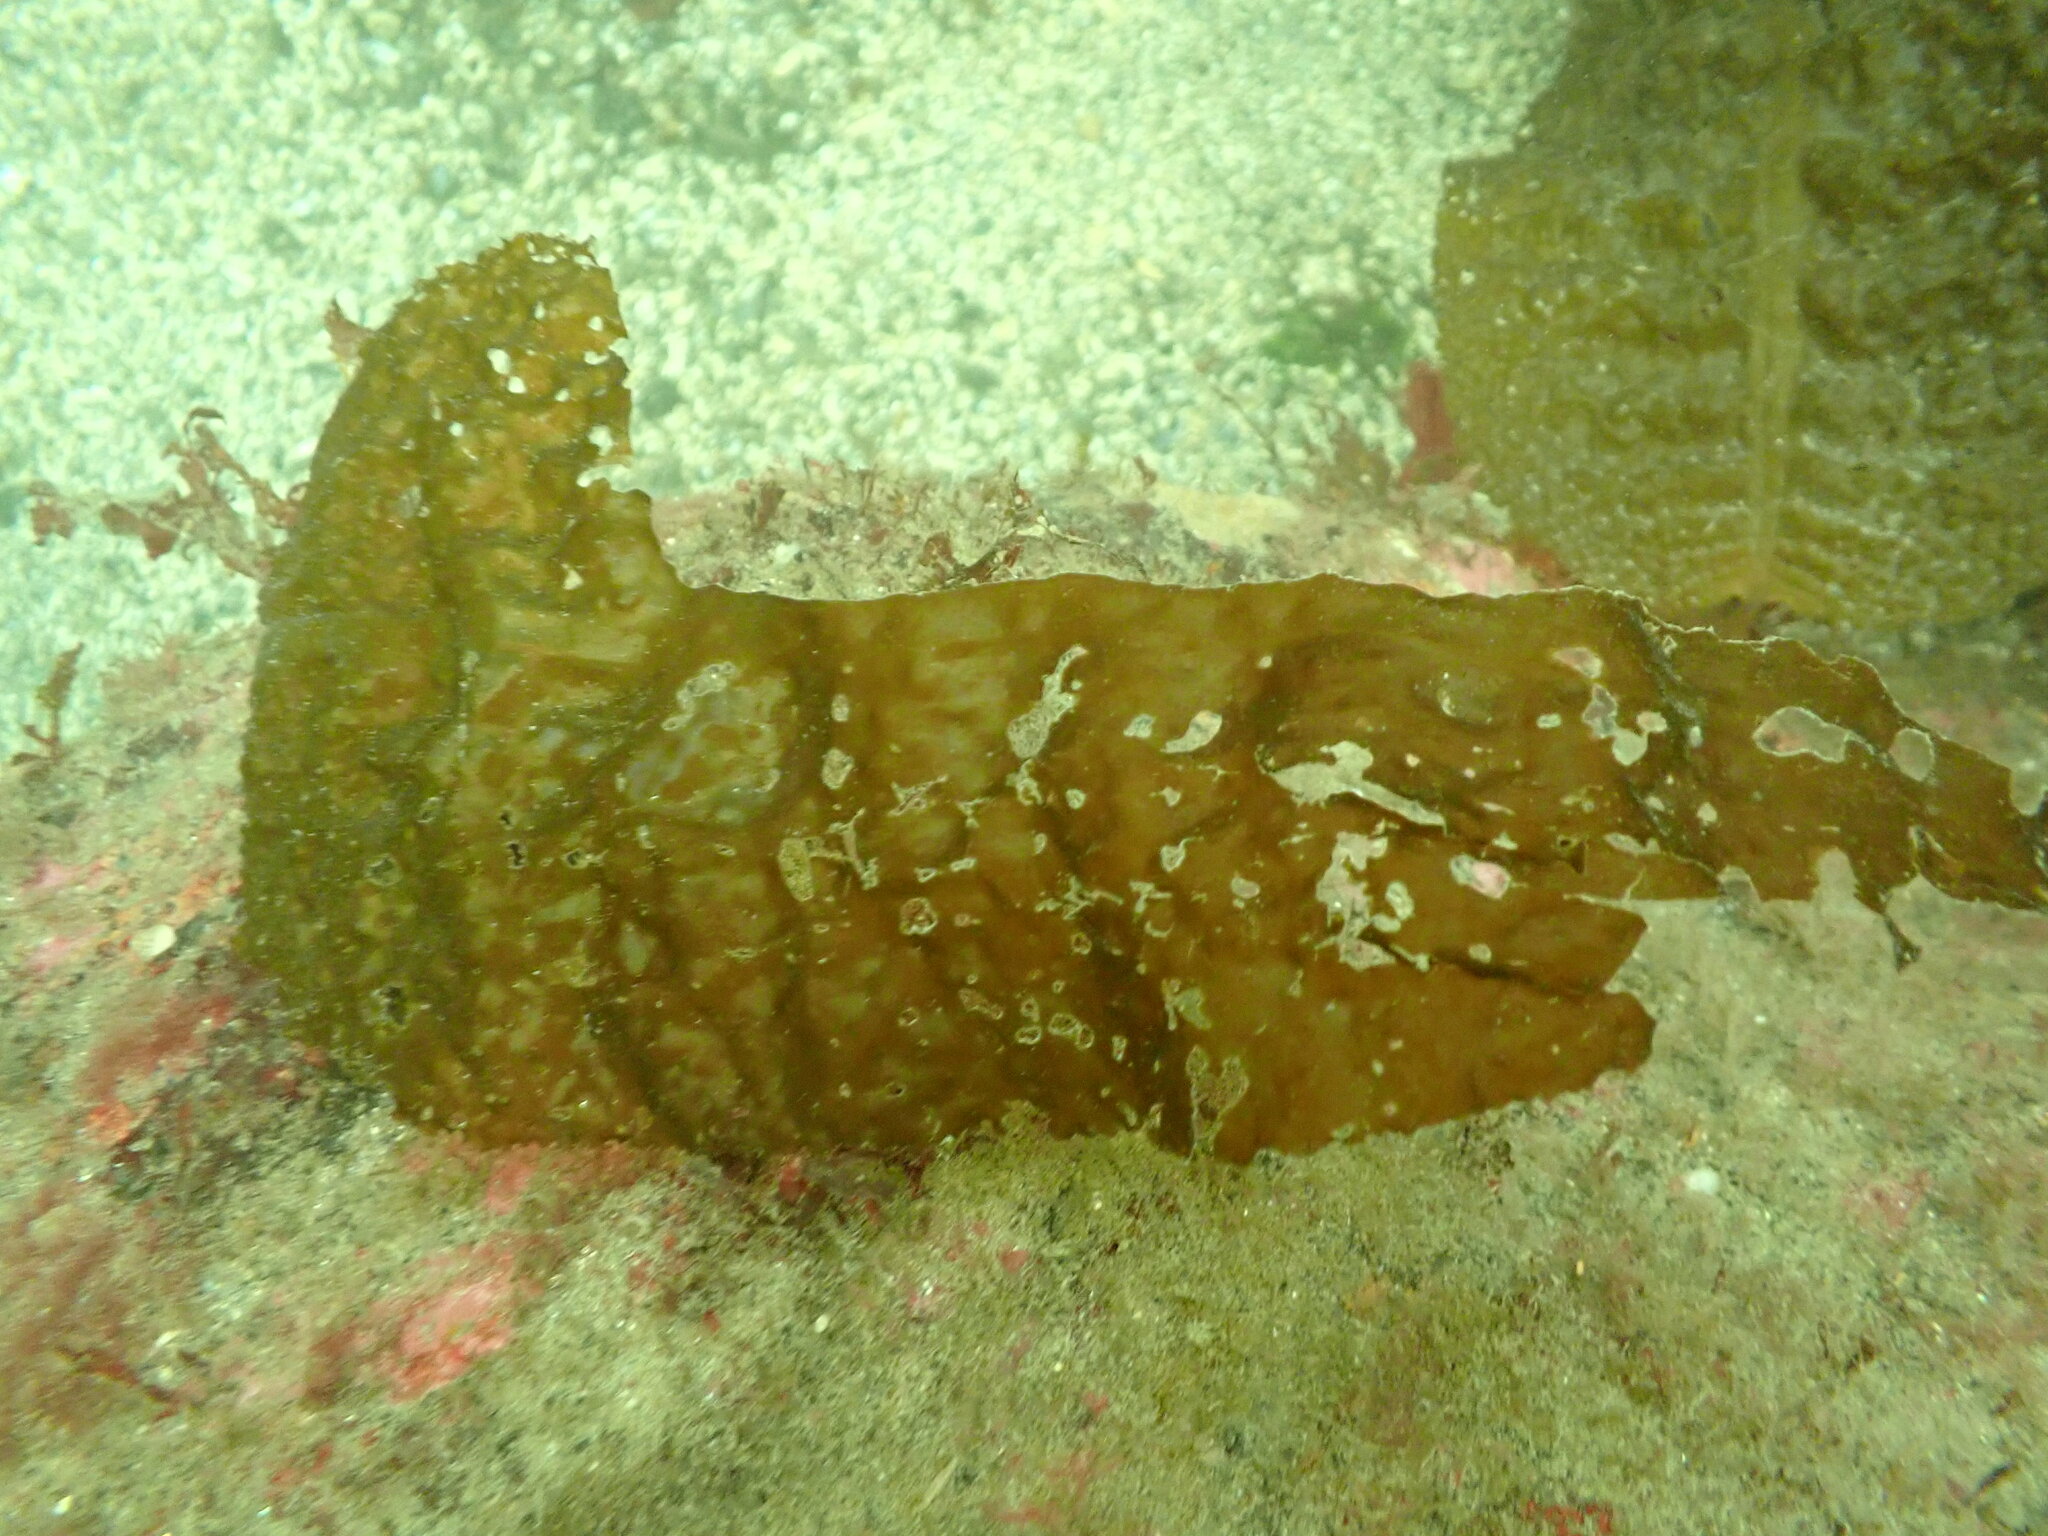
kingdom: Chromista
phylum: Ochrophyta
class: Phaeophyceae
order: Laminariales
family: Agaraceae
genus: Neoagarum
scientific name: Neoagarum
